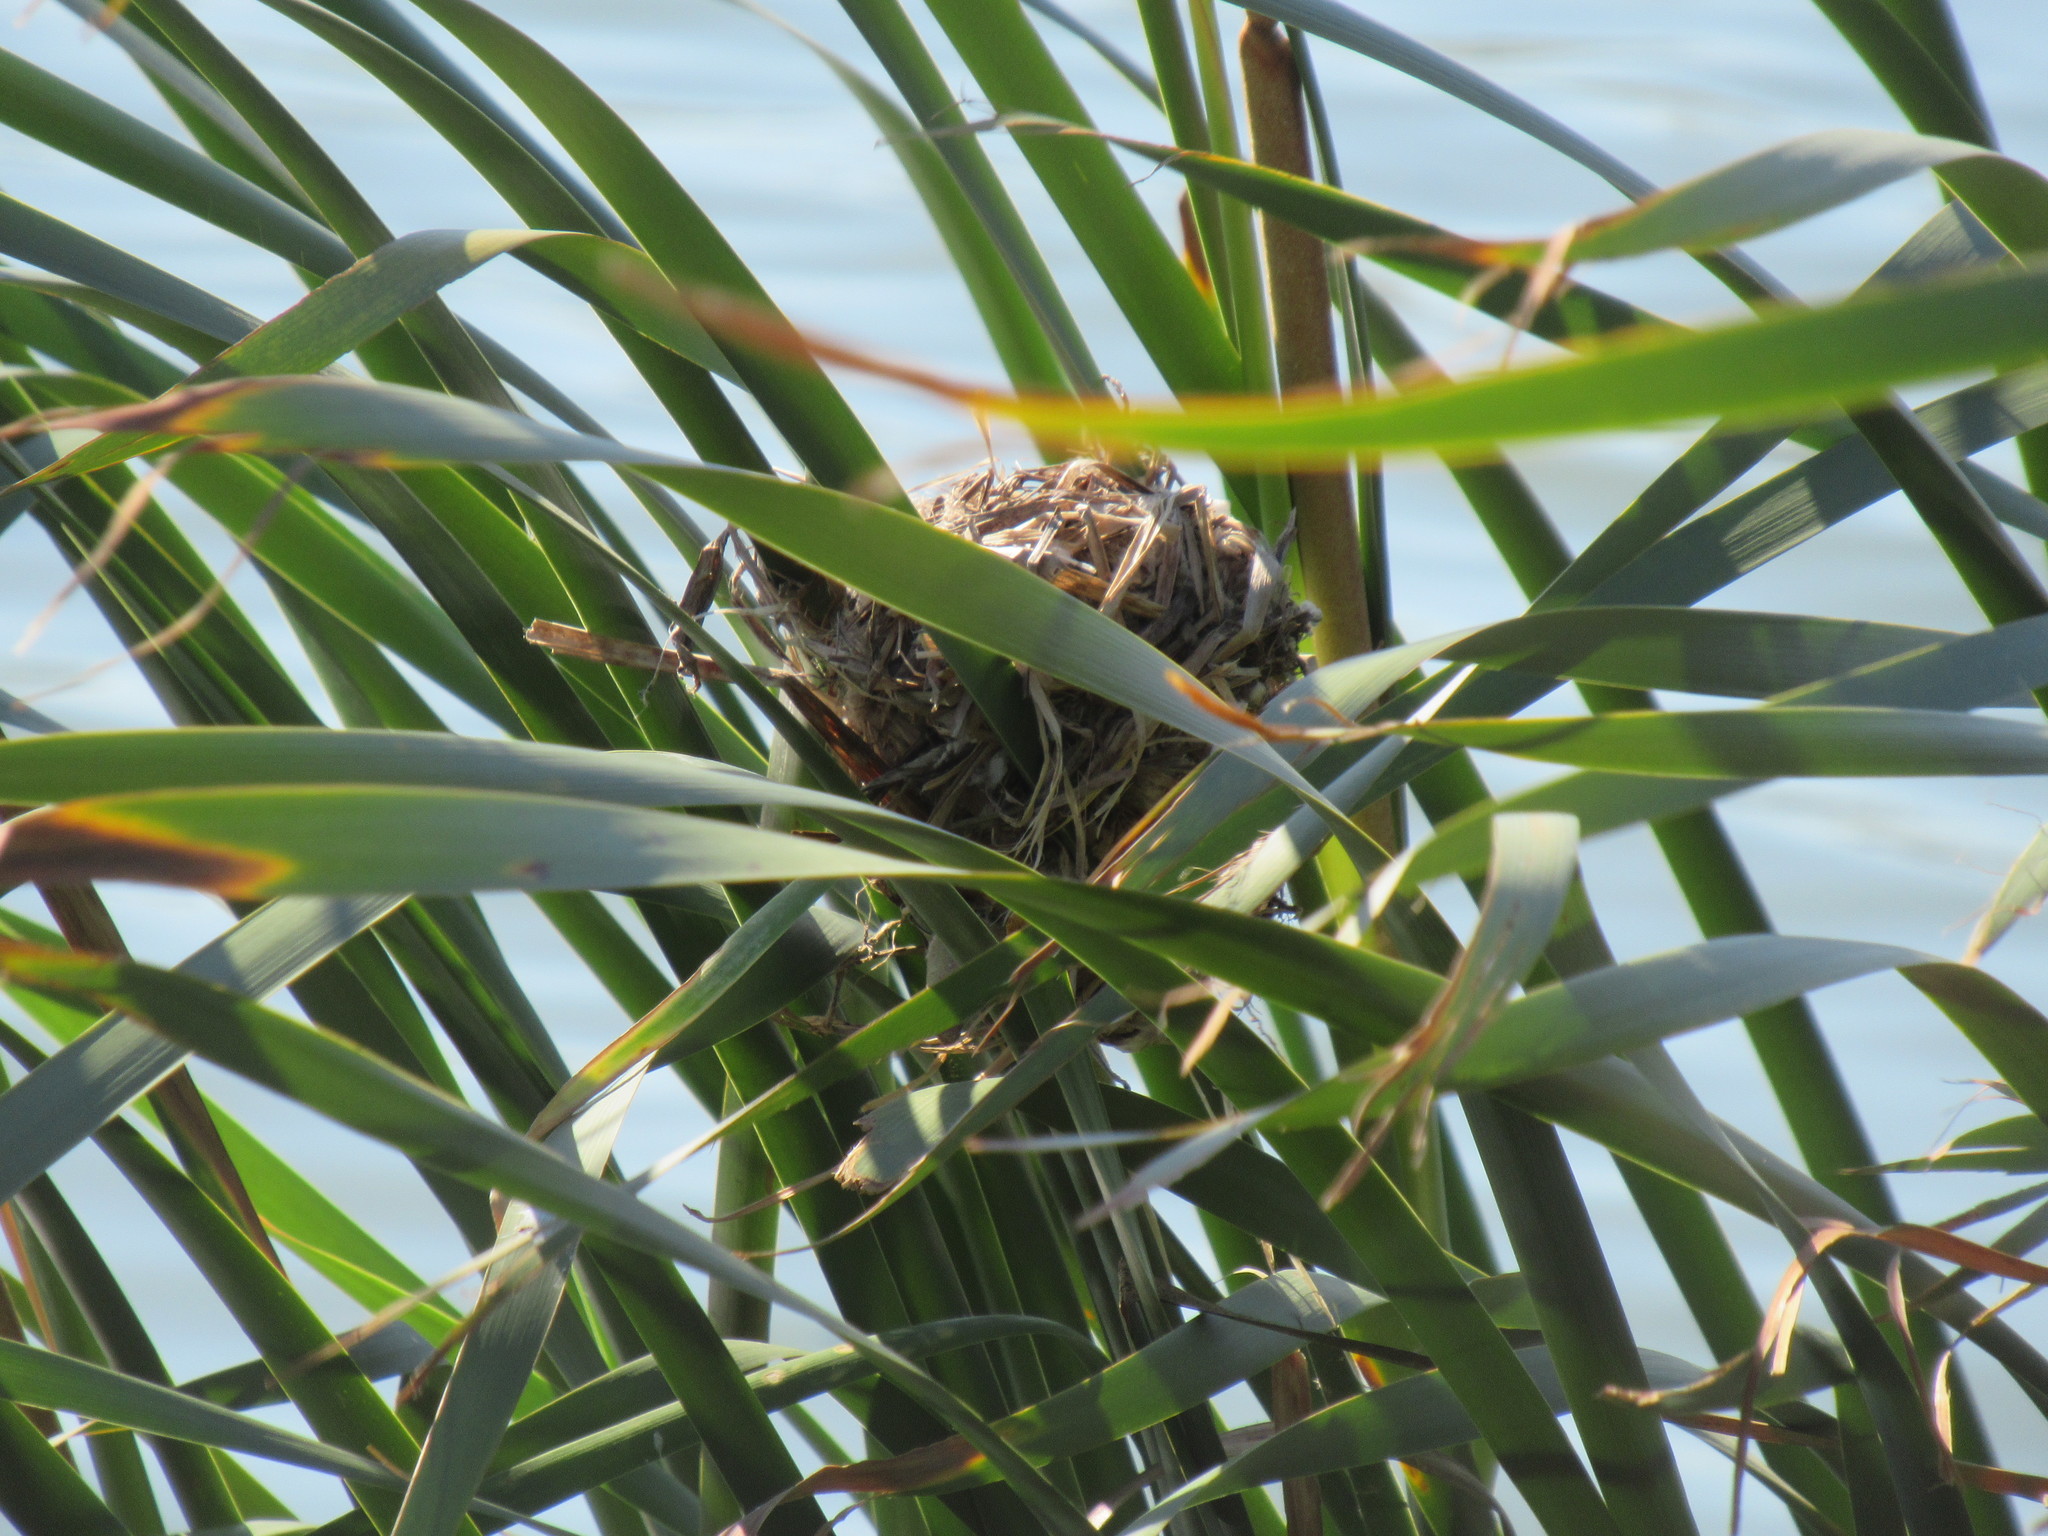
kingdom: Animalia
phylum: Chordata
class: Aves
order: Passeriformes
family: Troglodytidae
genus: Cistothorus
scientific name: Cistothorus palustris
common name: Marsh wren
